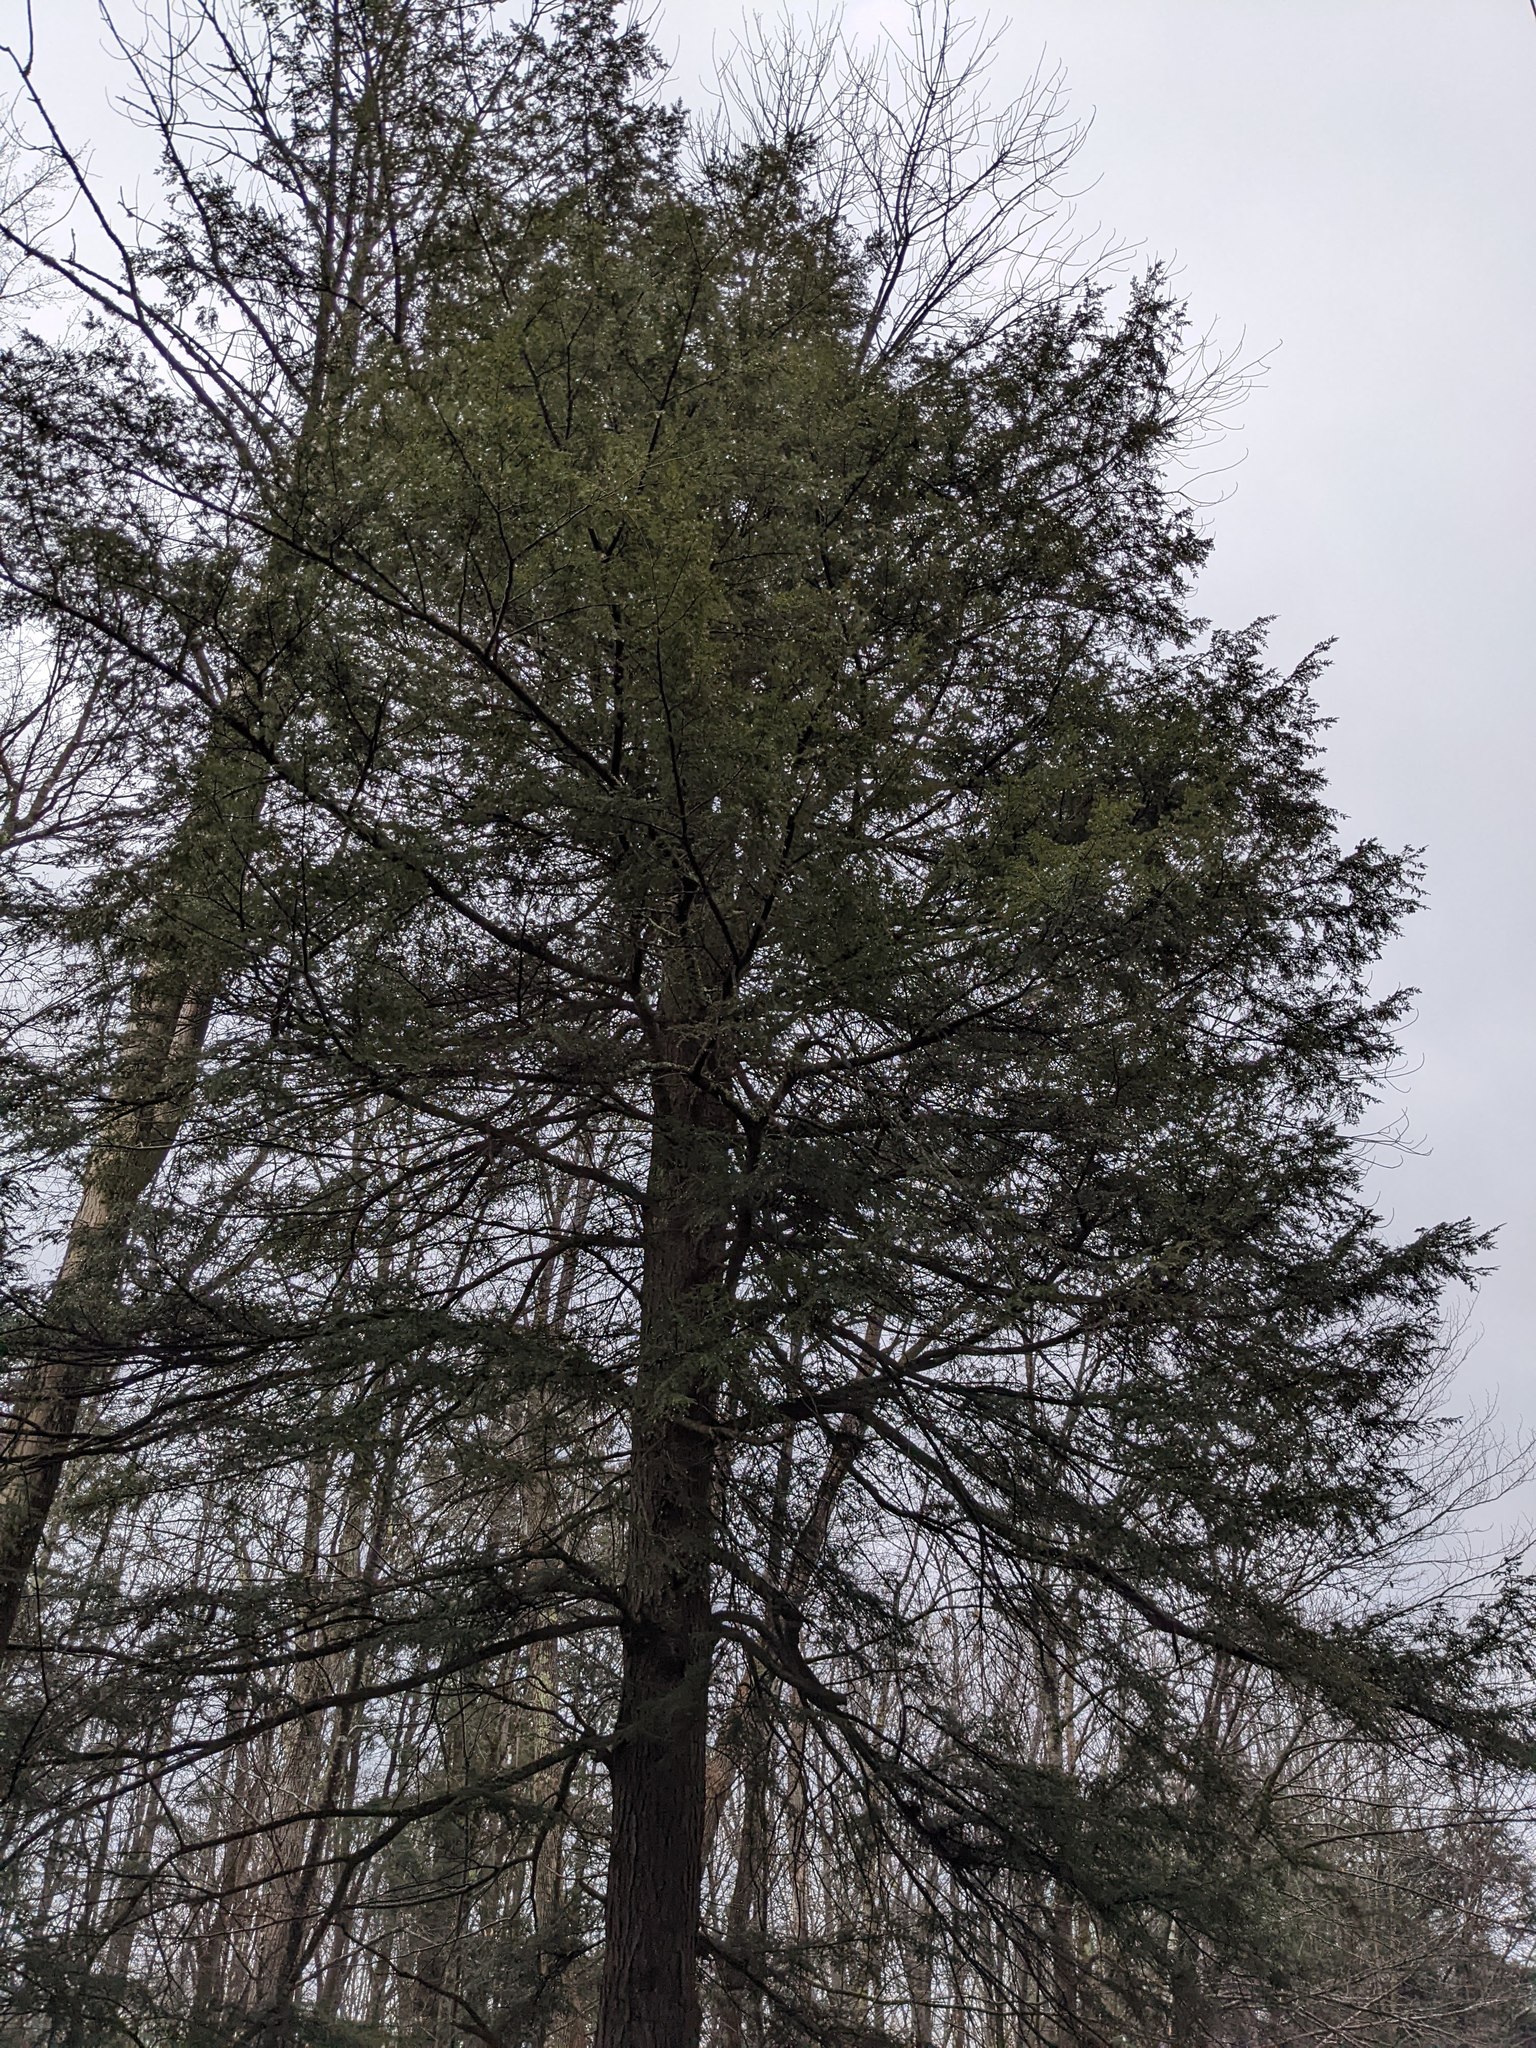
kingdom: Plantae
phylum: Tracheophyta
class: Pinopsida
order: Pinales
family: Pinaceae
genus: Tsuga
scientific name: Tsuga canadensis
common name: Eastern hemlock
